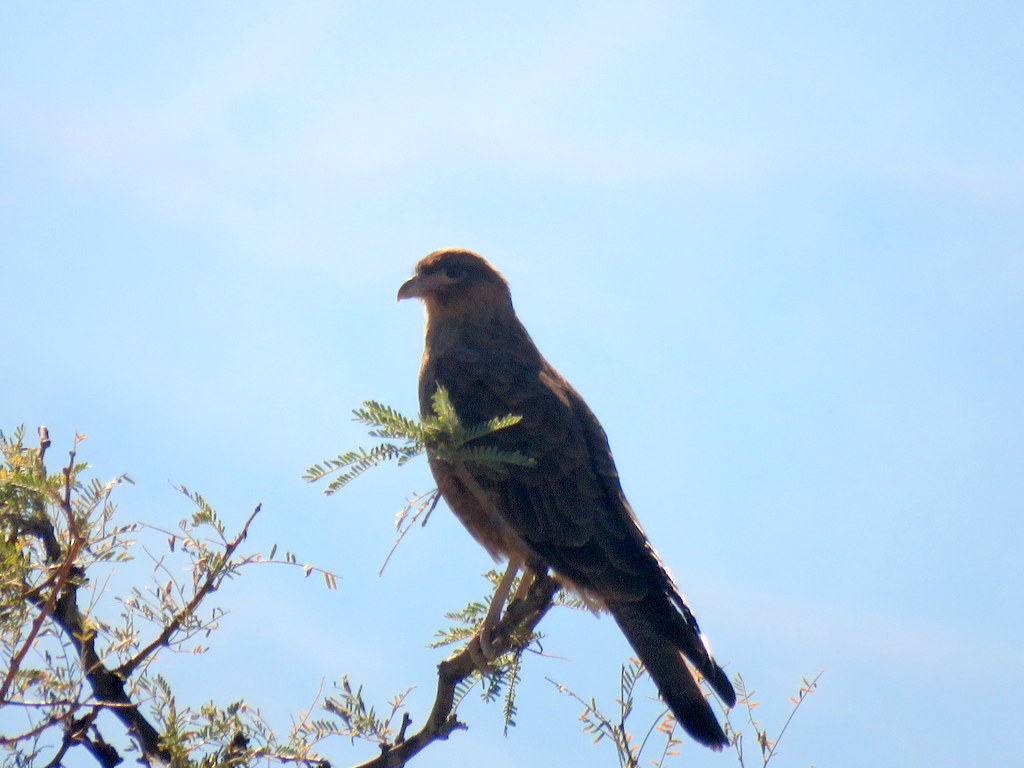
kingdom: Animalia
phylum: Chordata
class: Aves
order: Falconiformes
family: Falconidae
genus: Daptrius
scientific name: Daptrius
